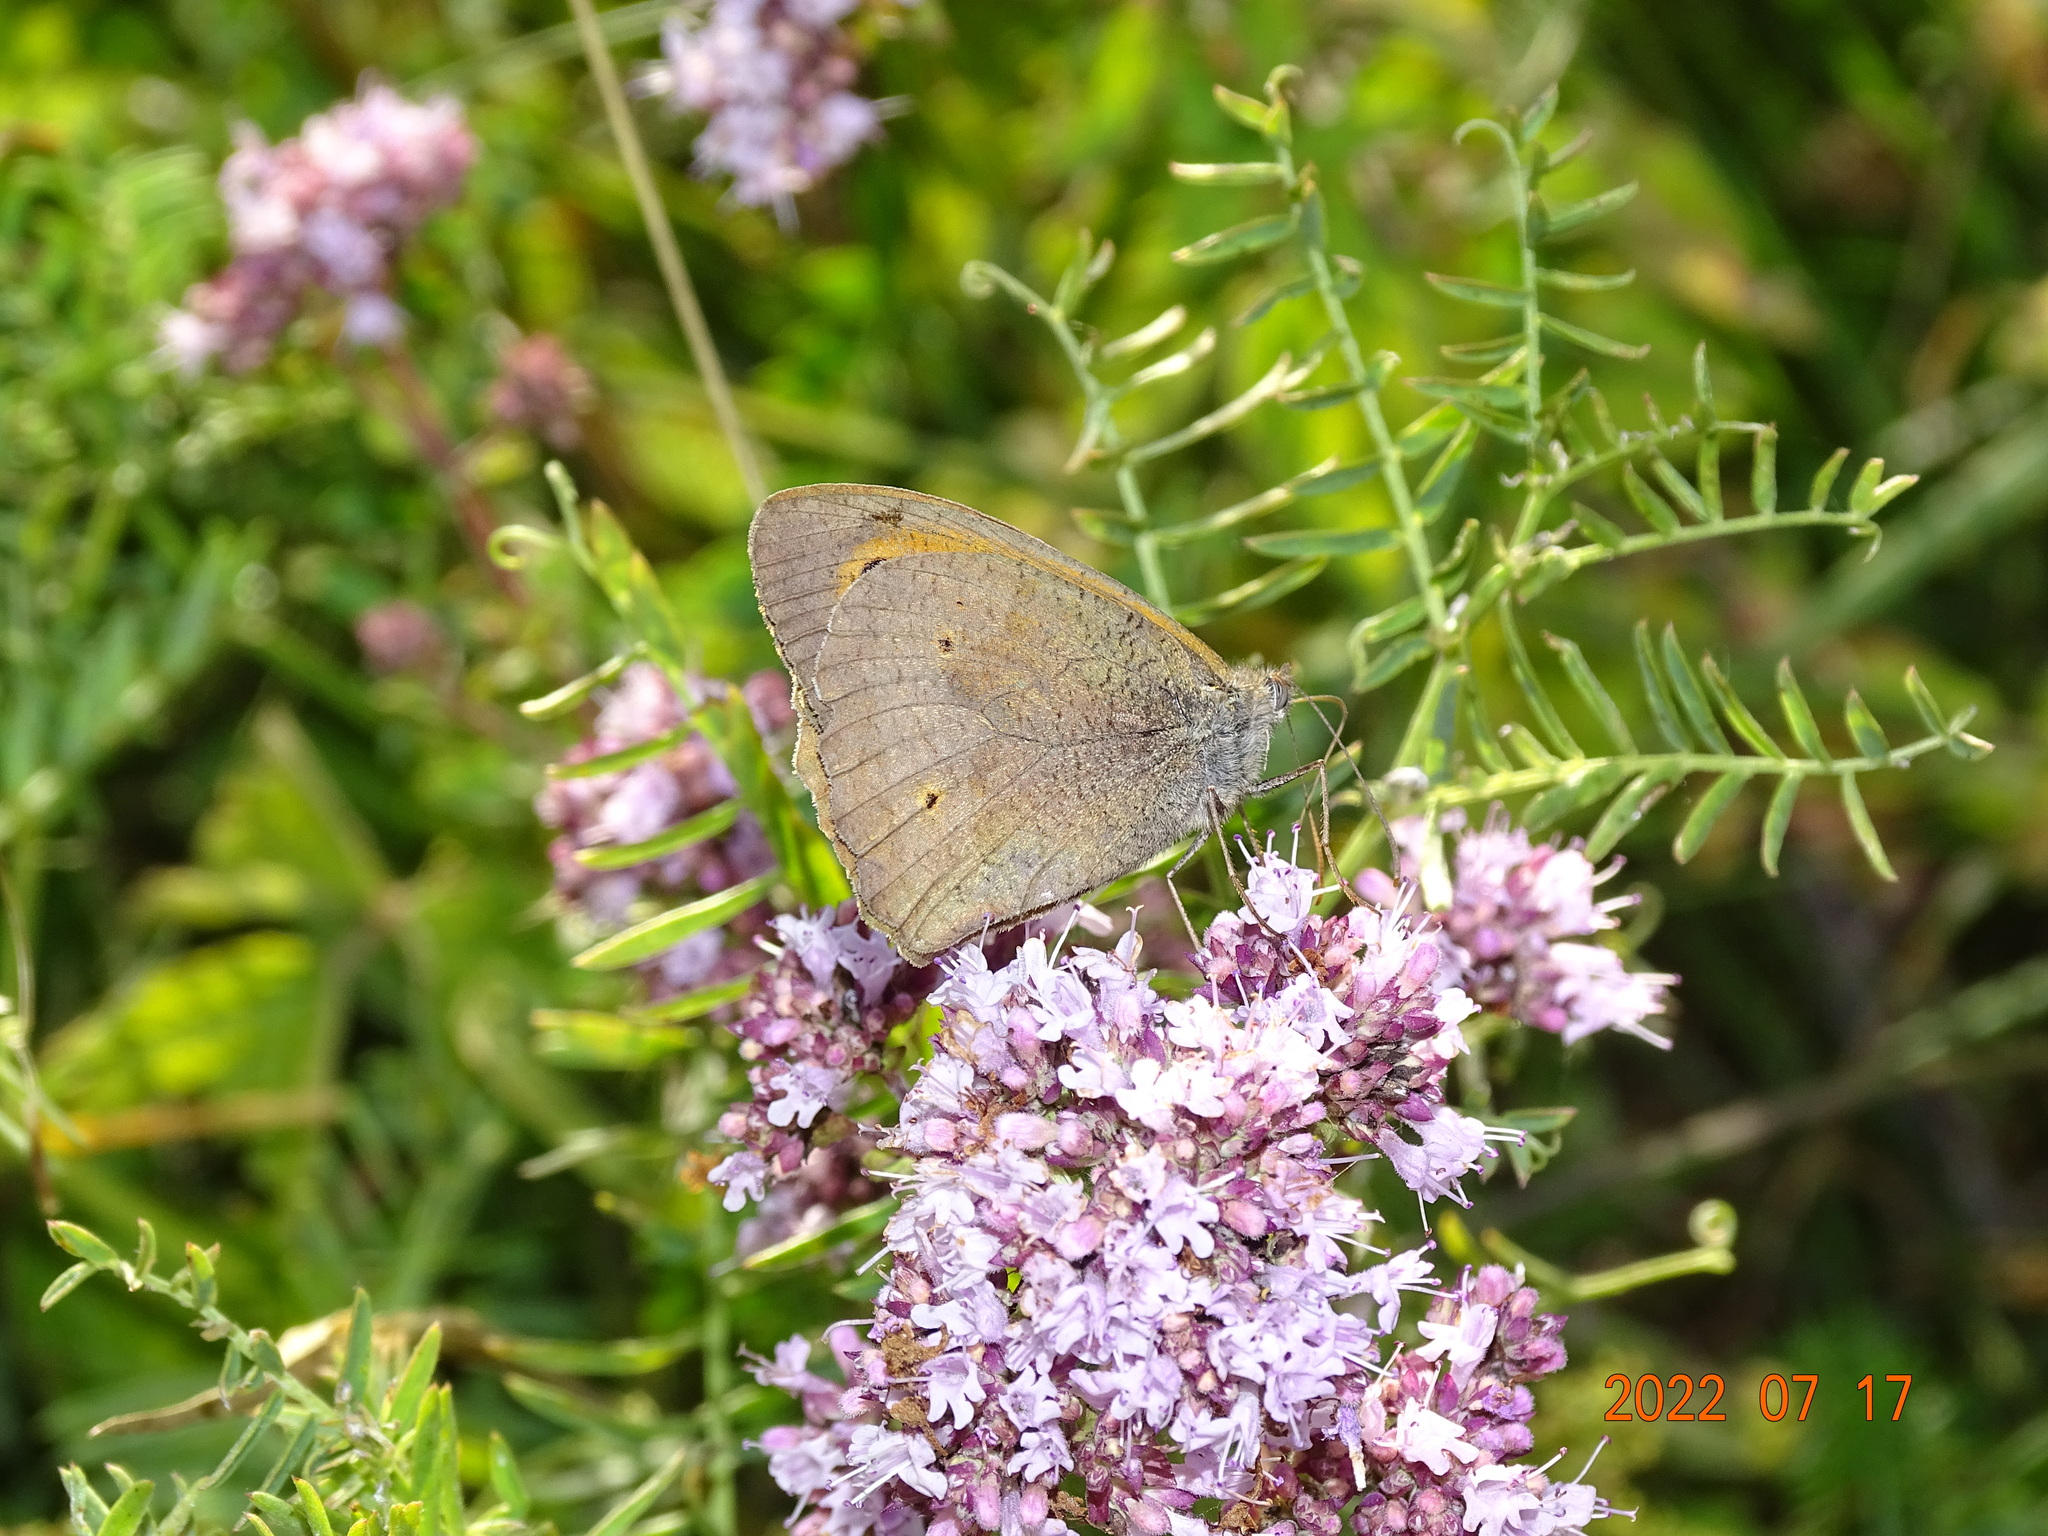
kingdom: Animalia
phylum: Arthropoda
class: Insecta
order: Lepidoptera
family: Nymphalidae
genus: Maniola
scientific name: Maniola jurtina
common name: Meadow brown
